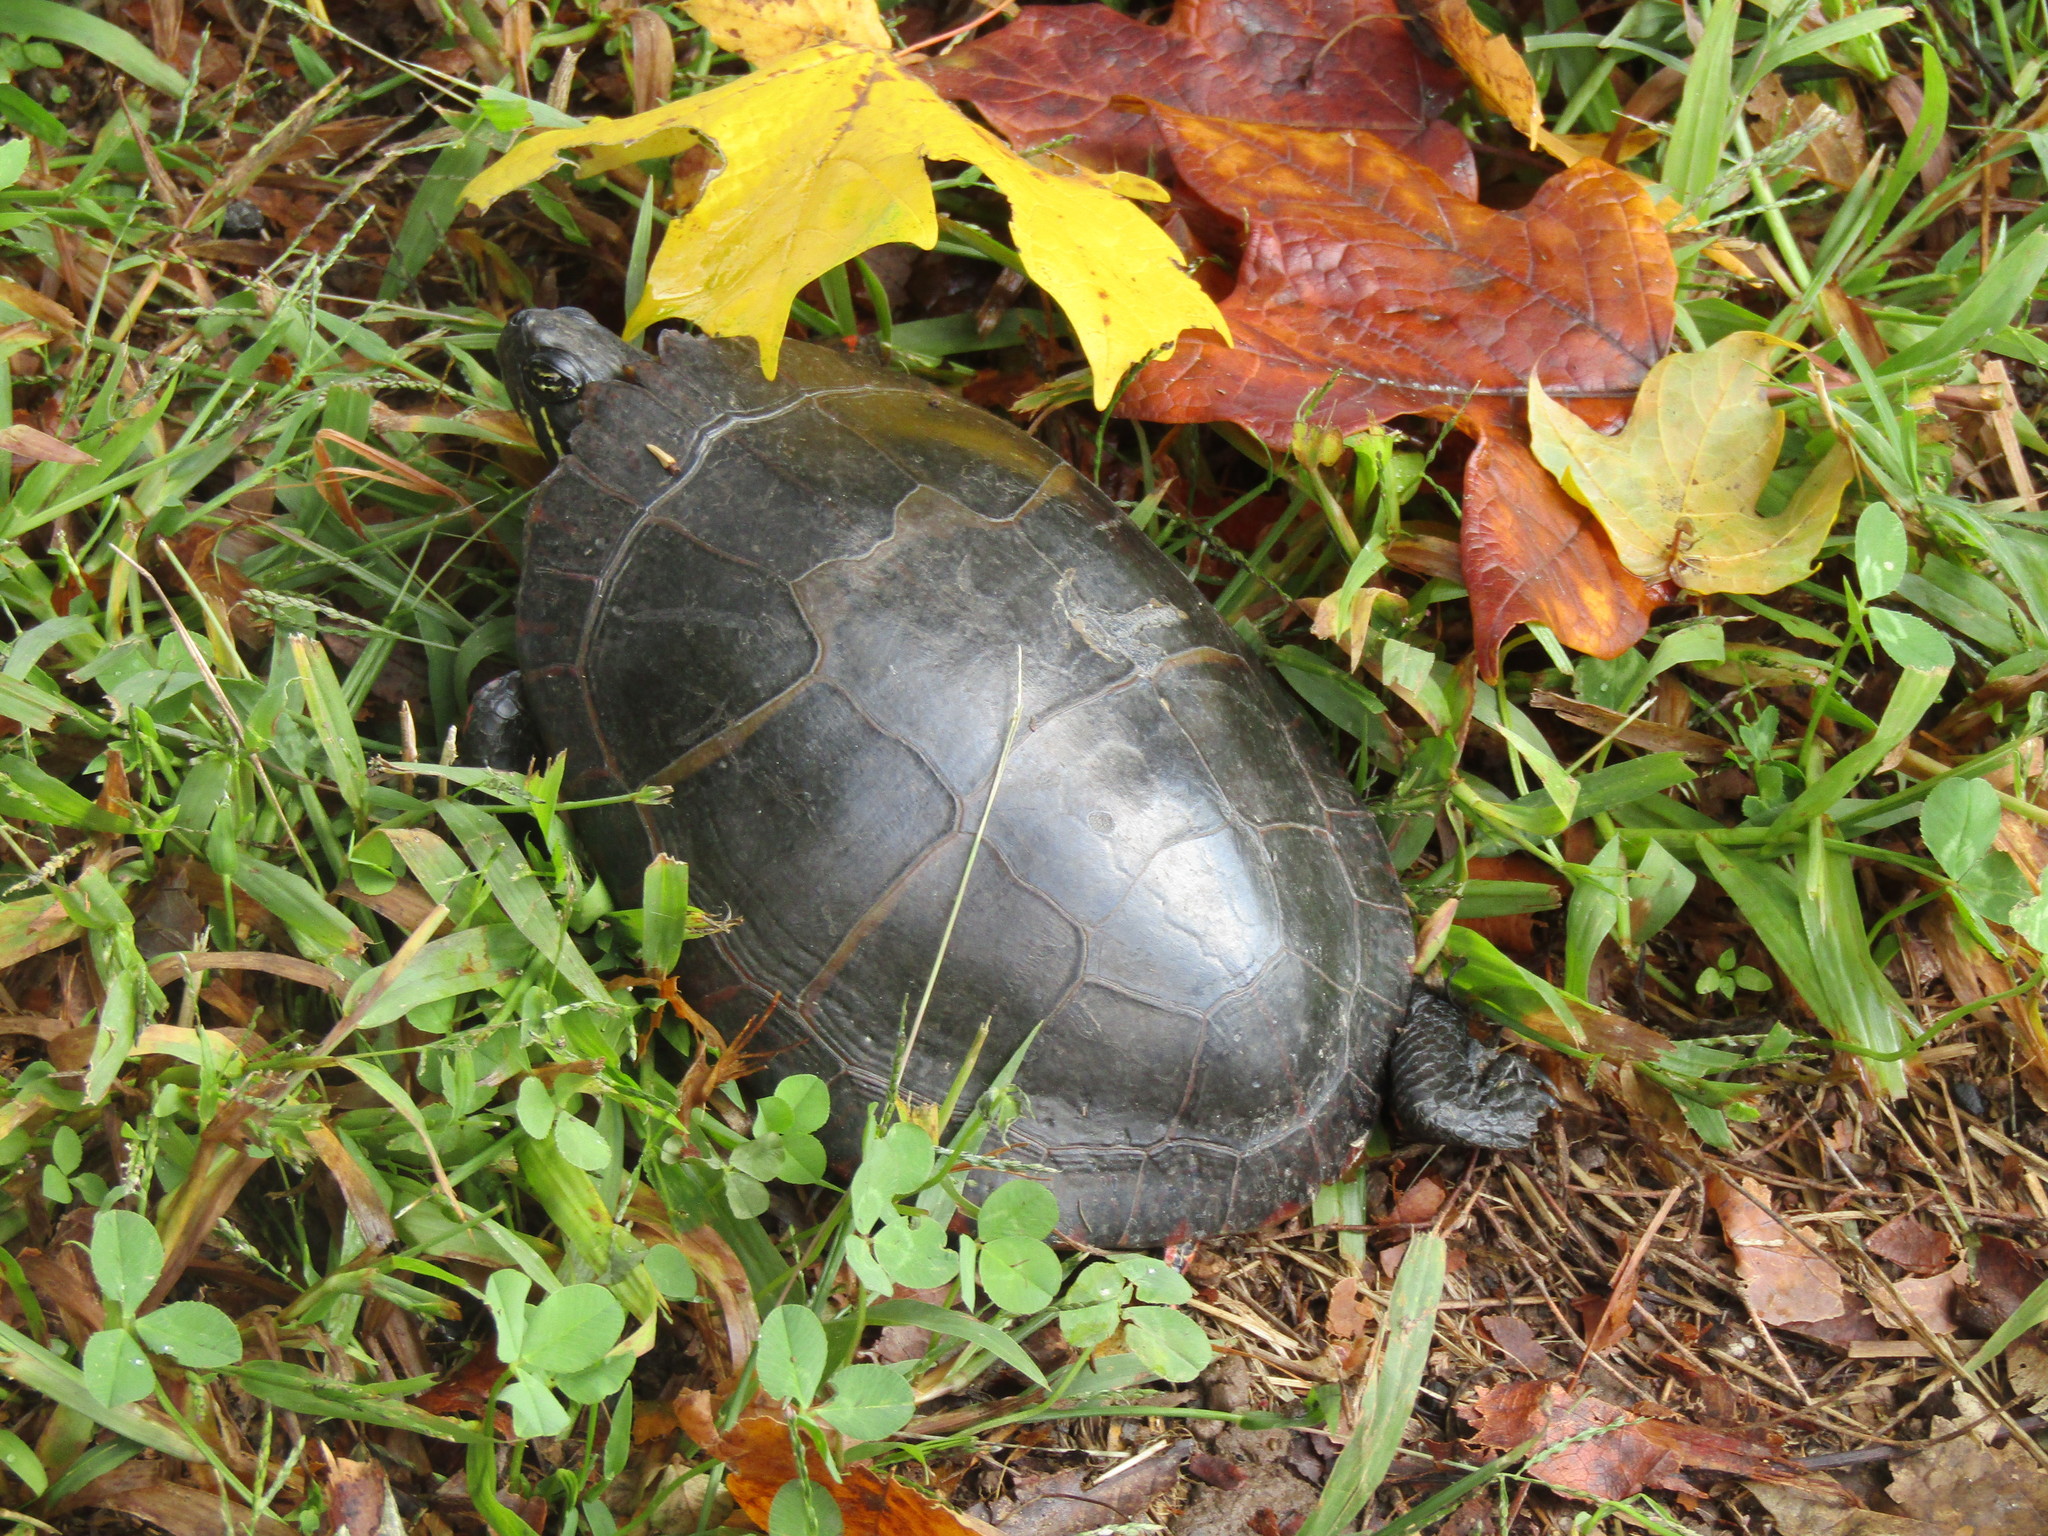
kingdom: Animalia
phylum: Chordata
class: Testudines
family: Emydidae
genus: Chrysemys
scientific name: Chrysemys picta
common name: Painted turtle
